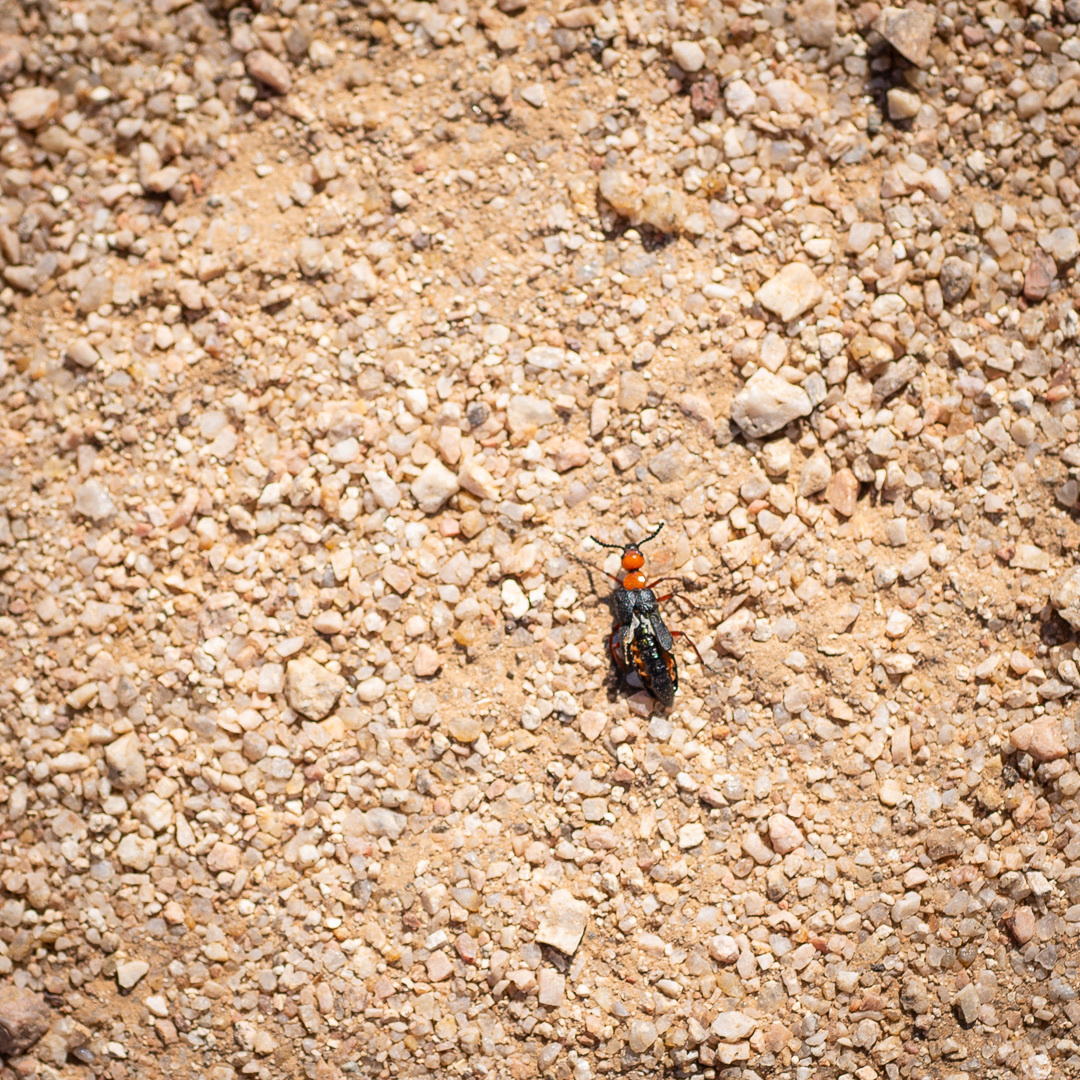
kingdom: Animalia
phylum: Arthropoda
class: Insecta
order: Coleoptera
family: Meloidae
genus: Lytta
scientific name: Lytta magister
